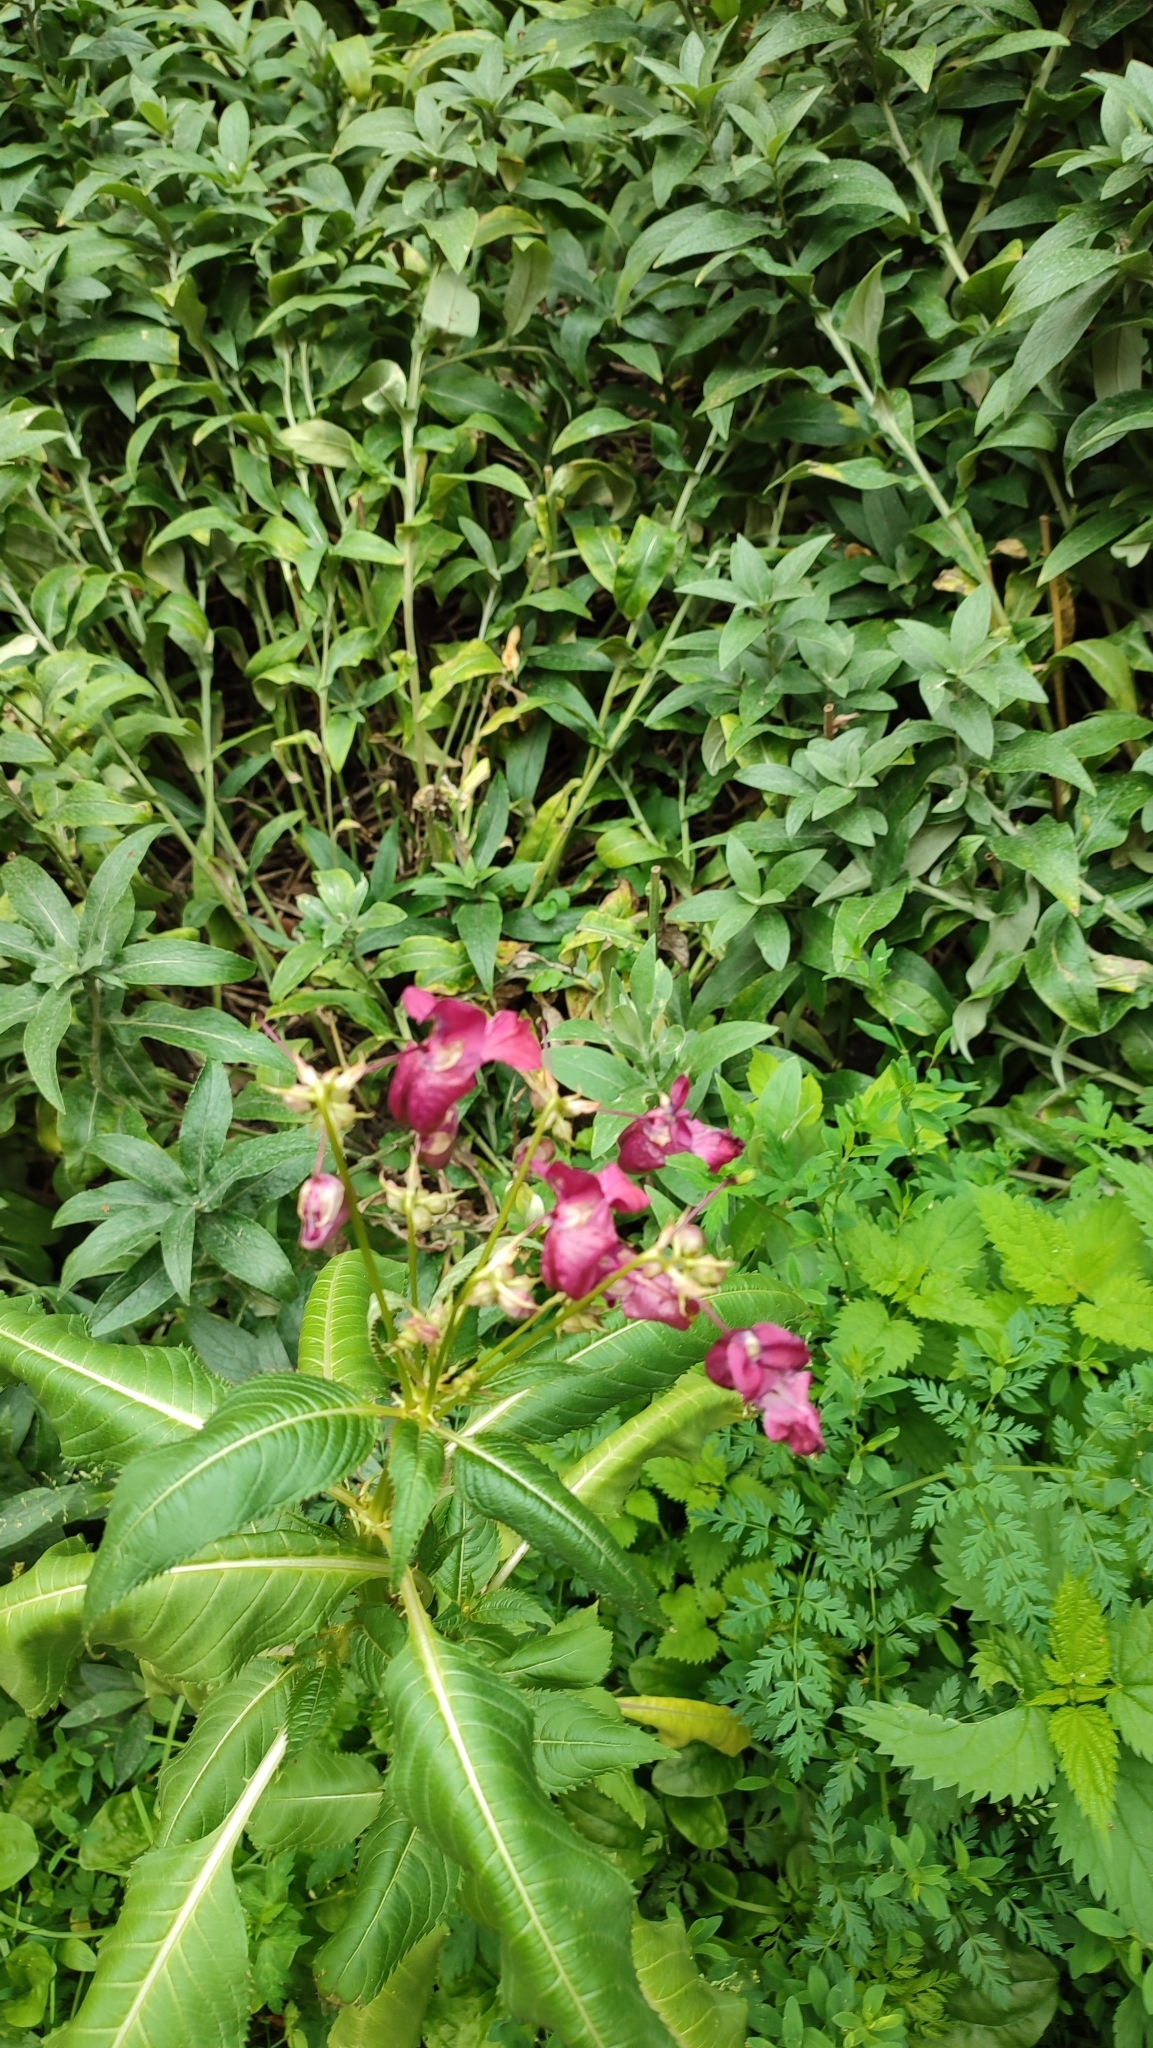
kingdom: Plantae
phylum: Tracheophyta
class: Magnoliopsida
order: Ericales
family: Balsaminaceae
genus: Impatiens
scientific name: Impatiens glandulifera
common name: Himalayan balsam
